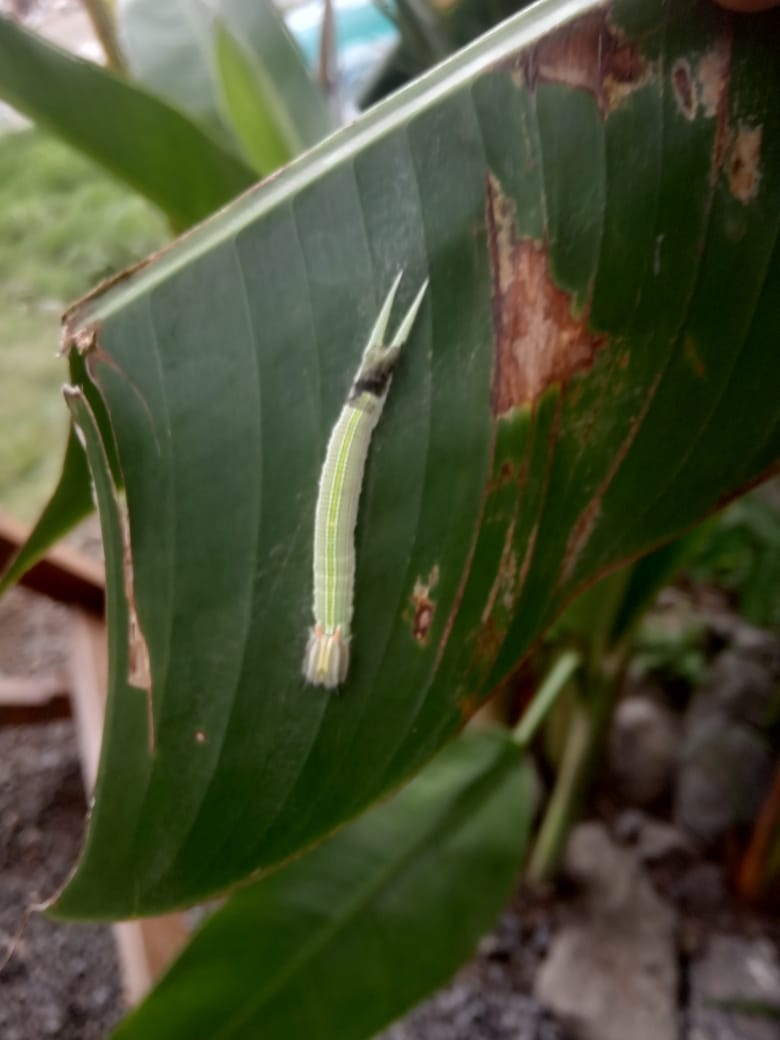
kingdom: Animalia
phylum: Arthropoda
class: Insecta
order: Lepidoptera
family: Nymphalidae
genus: Opsiphanes
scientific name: Opsiphanes cassiae
